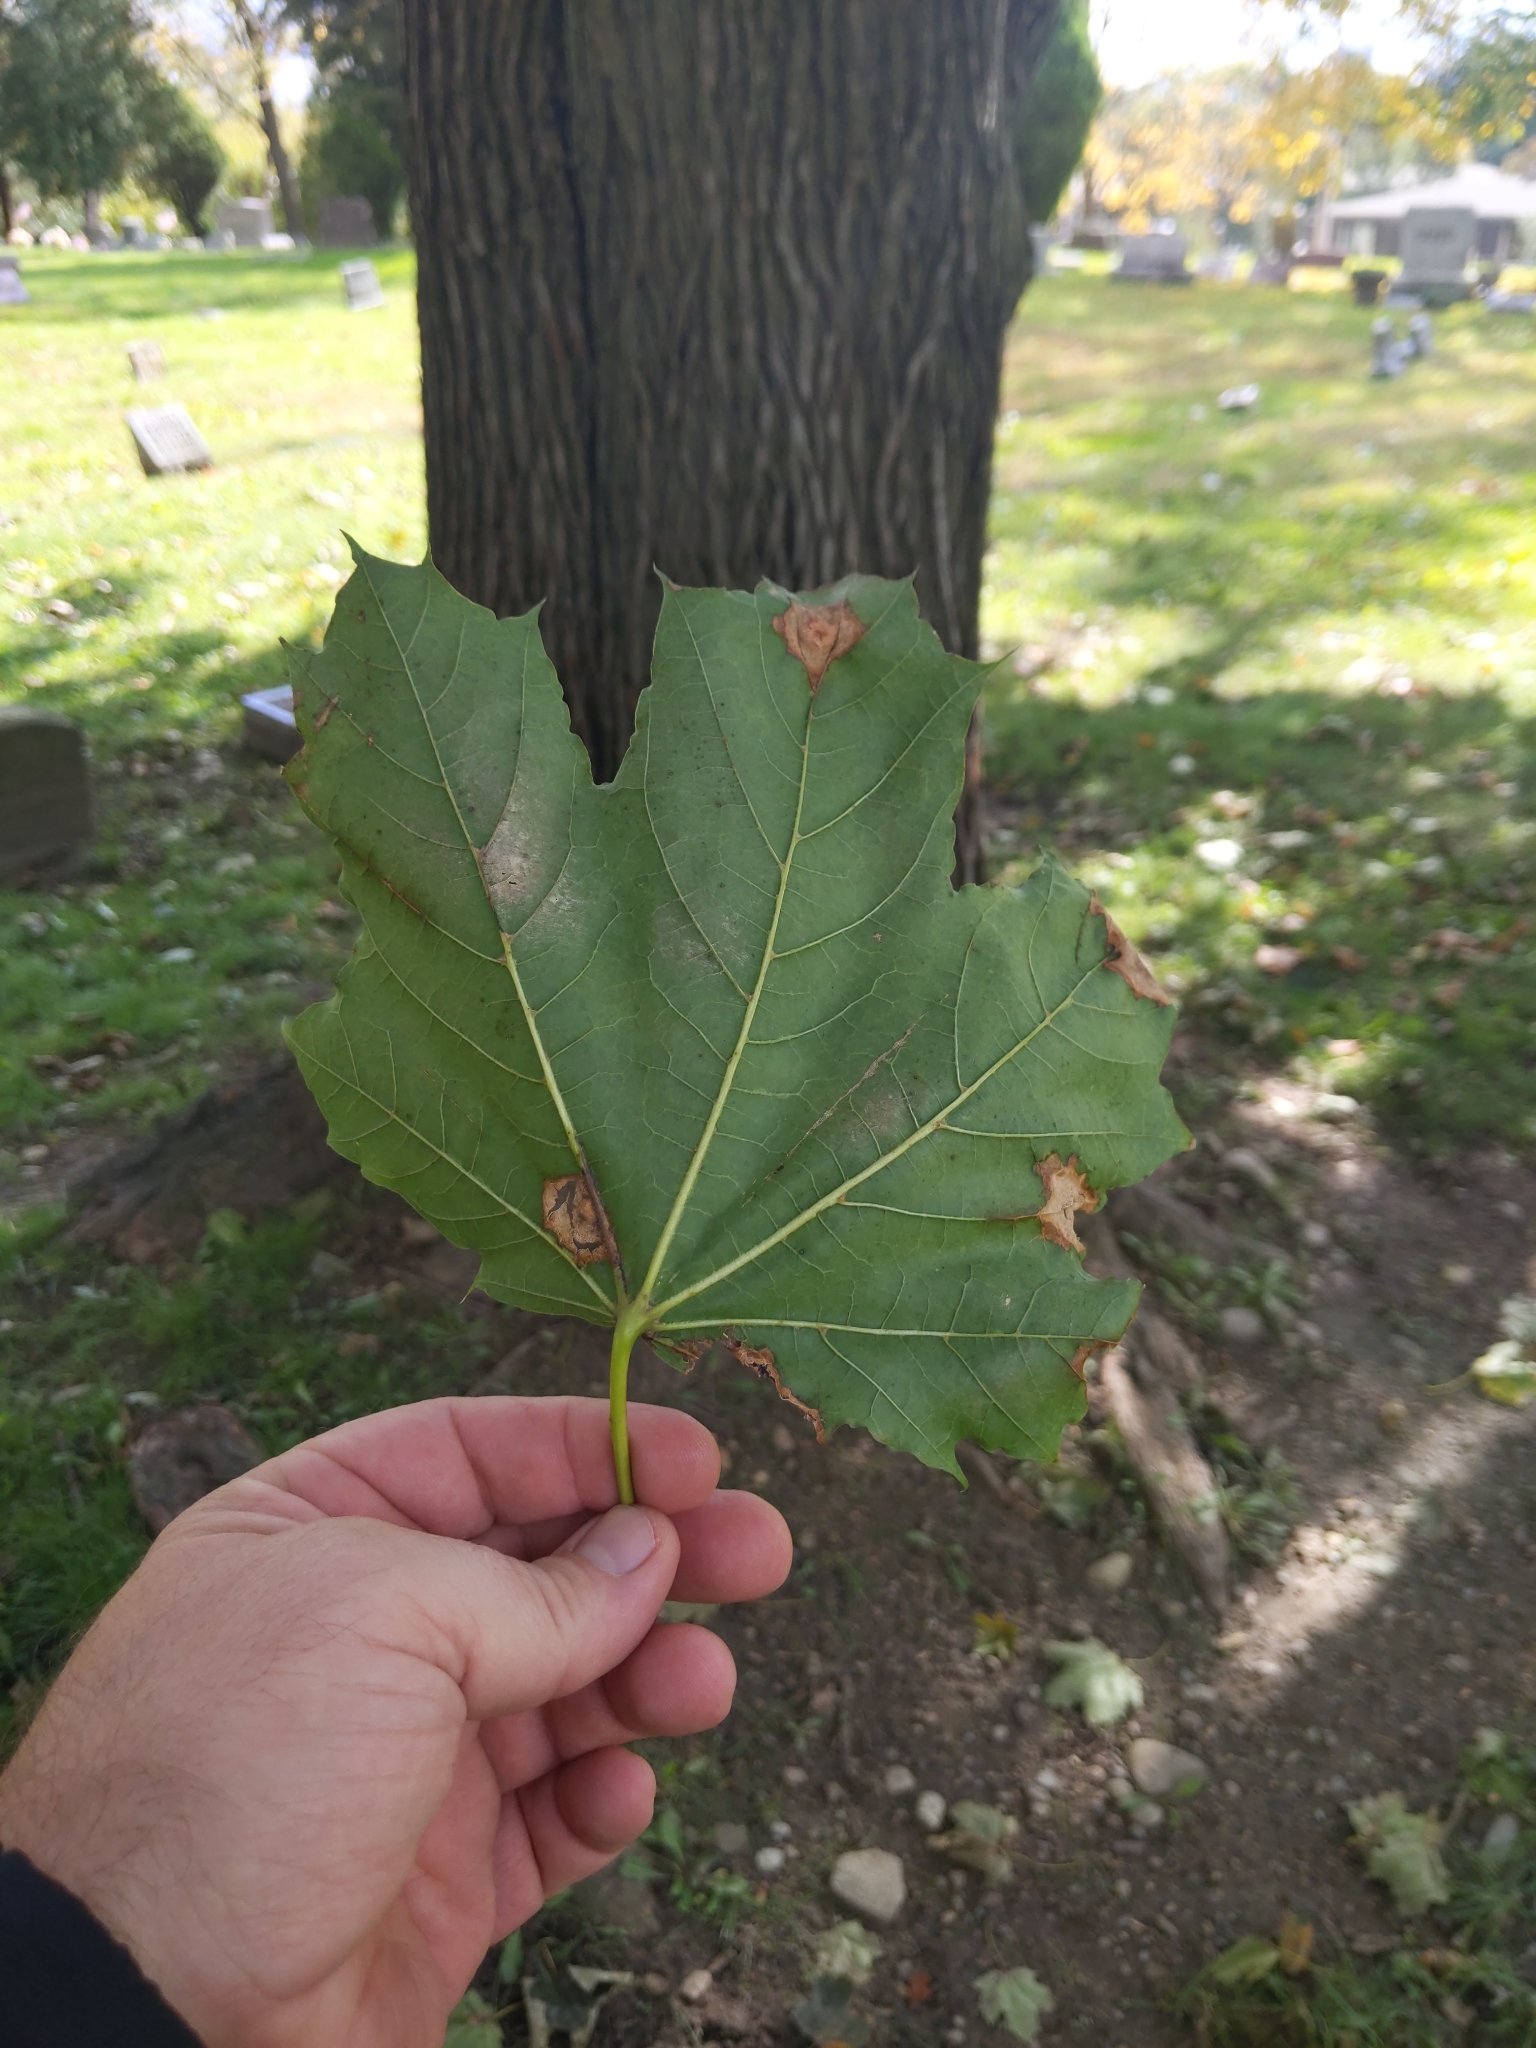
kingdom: Plantae
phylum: Tracheophyta
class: Magnoliopsida
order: Sapindales
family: Sapindaceae
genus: Acer
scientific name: Acer platanoides
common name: Norway maple
